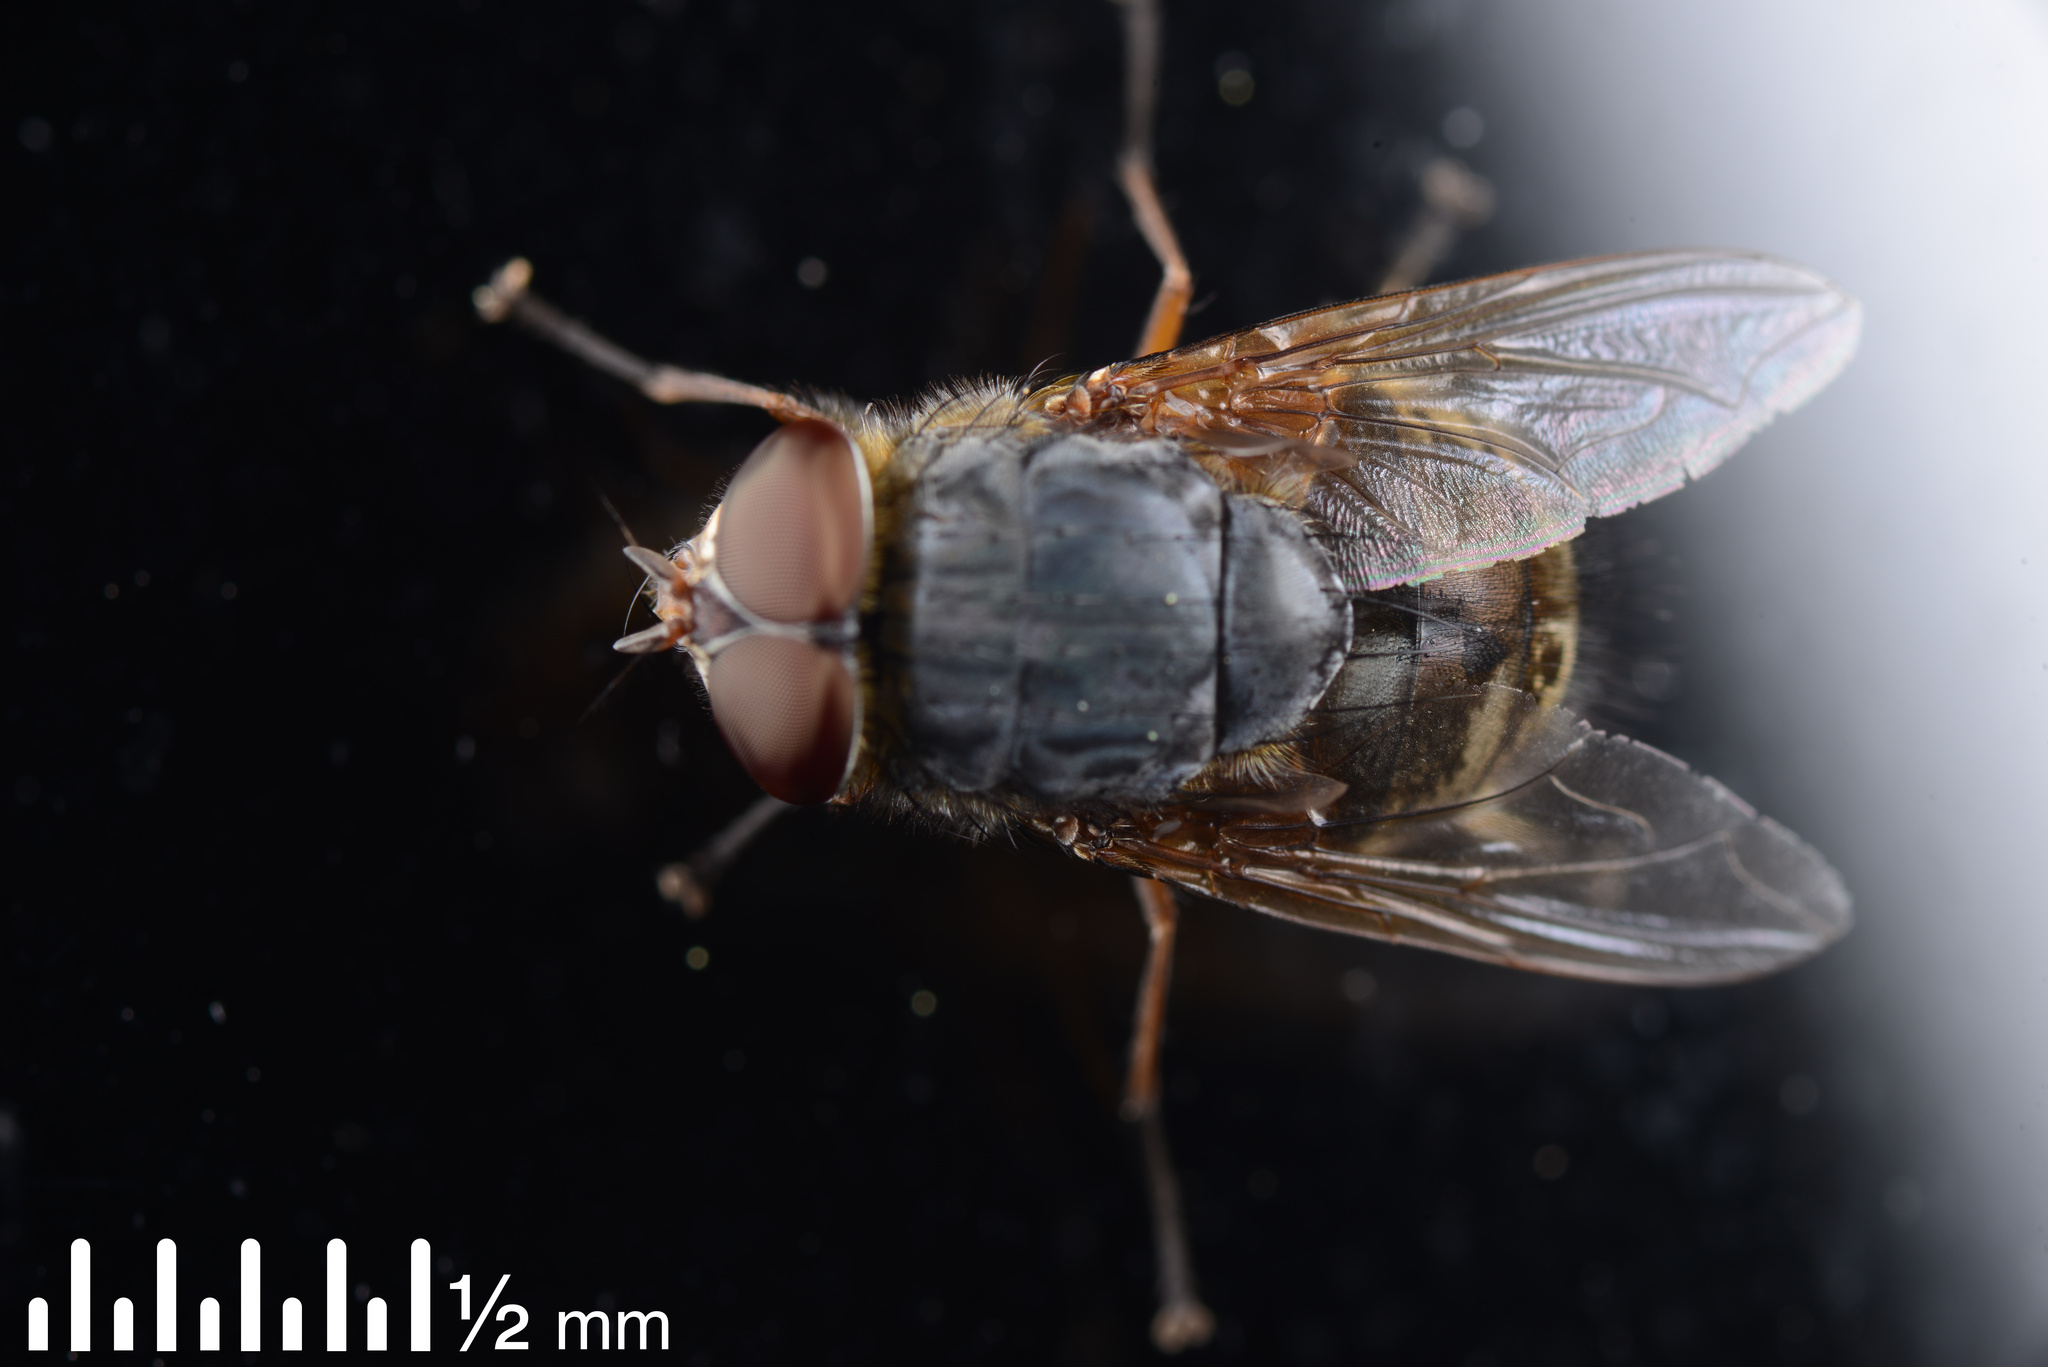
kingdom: Animalia
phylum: Arthropoda
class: Insecta
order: Diptera
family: Calliphoridae
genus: Calliphora
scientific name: Calliphora stygia
